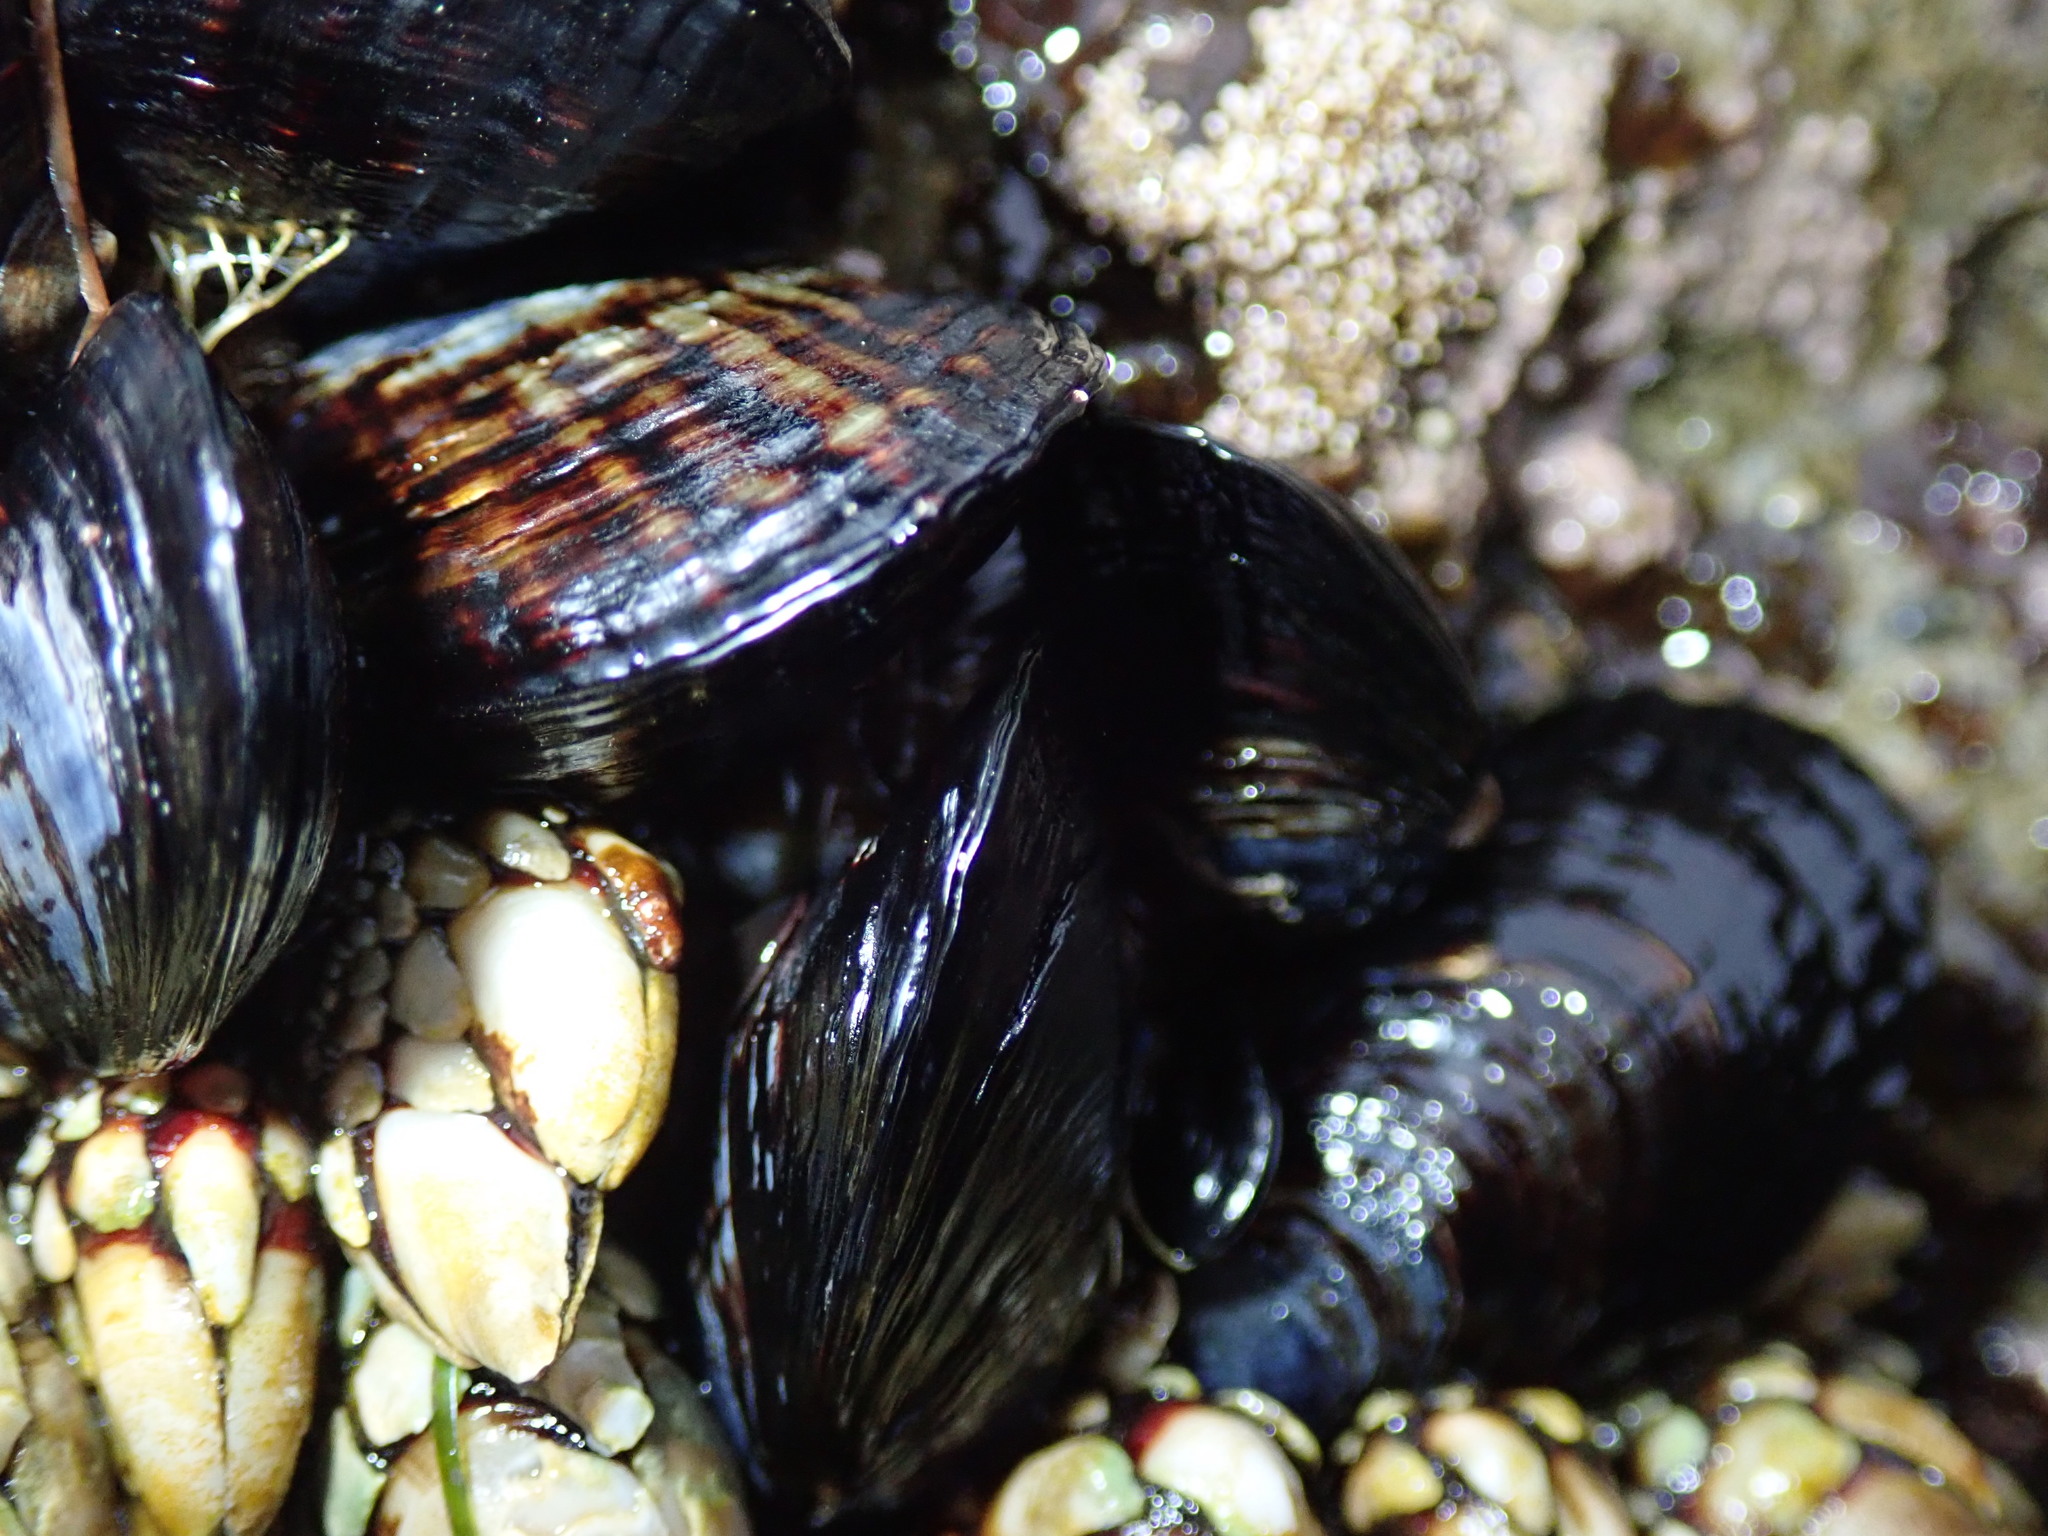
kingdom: Animalia
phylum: Mollusca
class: Bivalvia
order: Mytilida
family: Mytilidae
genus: Mytilus
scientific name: Mytilus californianus
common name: California mussel
